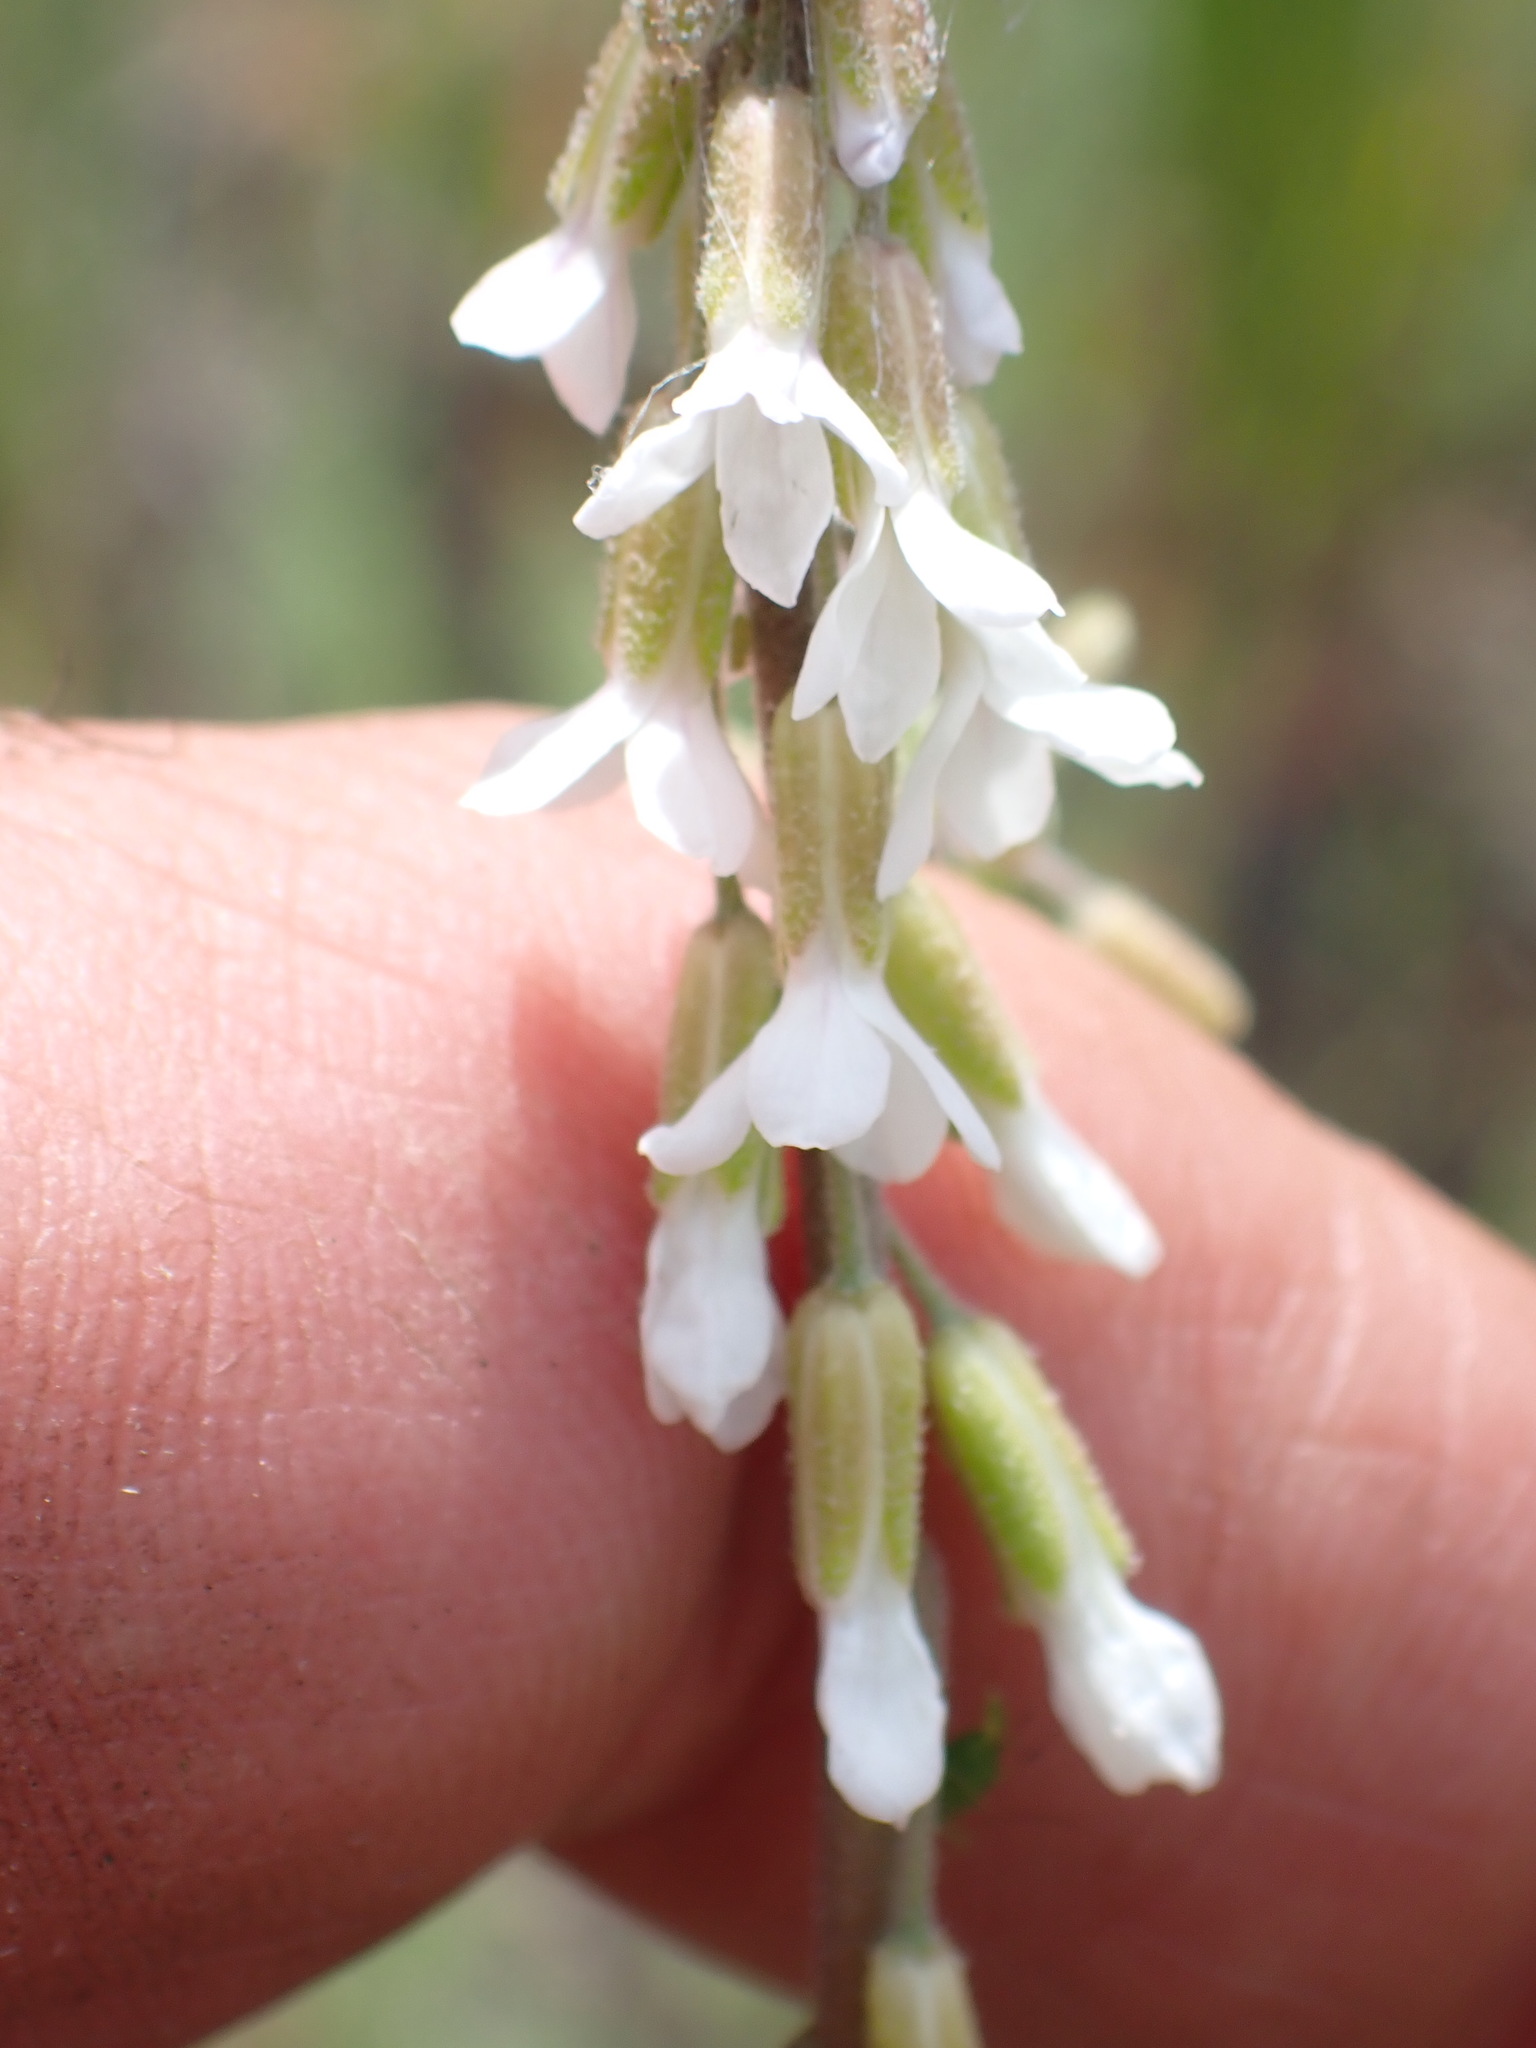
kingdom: Plantae
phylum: Tracheophyta
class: Magnoliopsida
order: Brassicales
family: Brassicaceae
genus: Boechera
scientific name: Boechera retrofracta
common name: Dangling suncress
